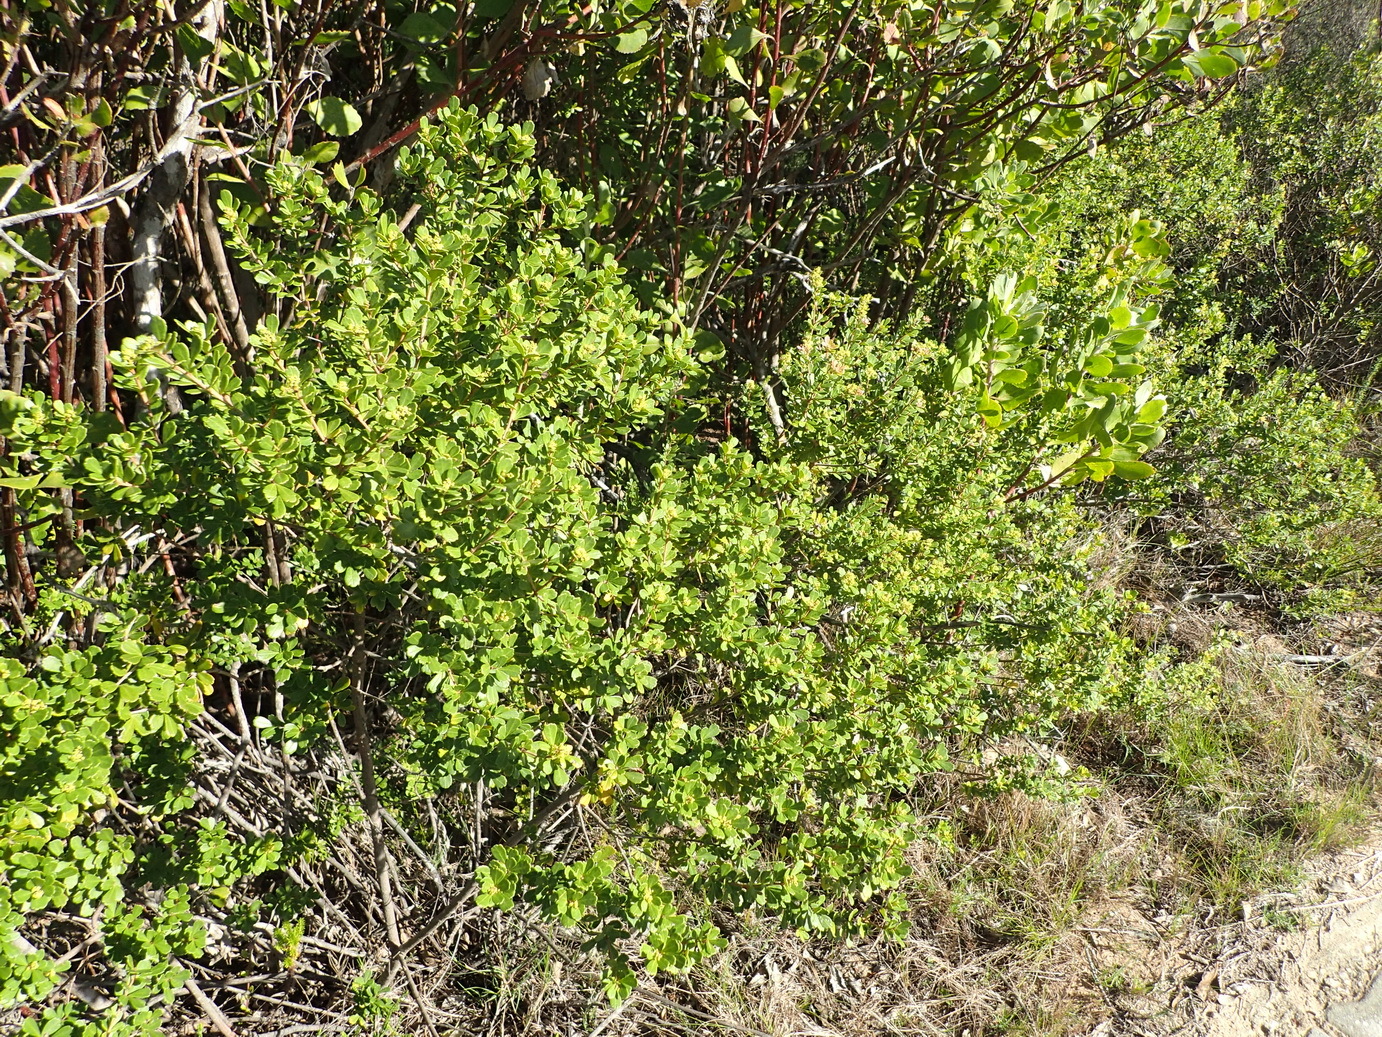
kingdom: Plantae
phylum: Tracheophyta
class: Magnoliopsida
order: Sapindales
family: Anacardiaceae
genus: Searsia
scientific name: Searsia crenata
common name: Crowberry
